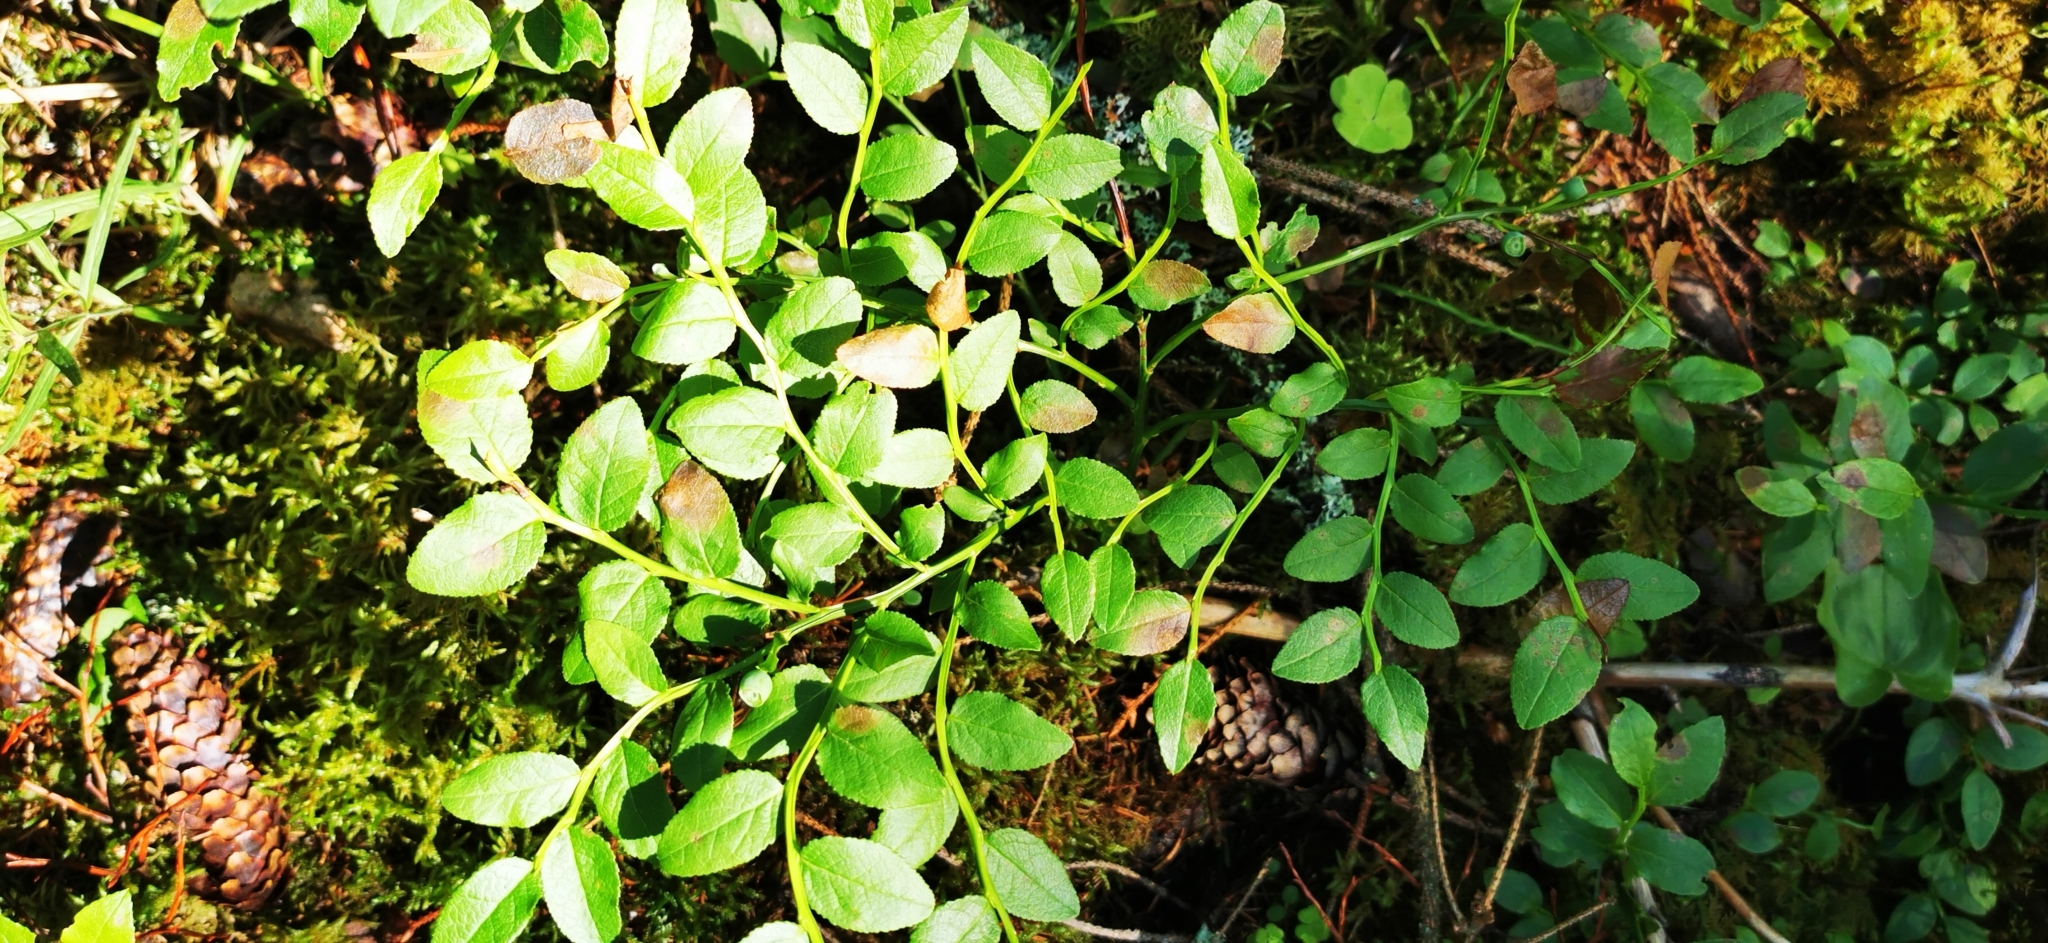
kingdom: Plantae
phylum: Tracheophyta
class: Magnoliopsida
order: Ericales
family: Ericaceae
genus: Vaccinium
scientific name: Vaccinium myrtillus
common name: Bilberry
